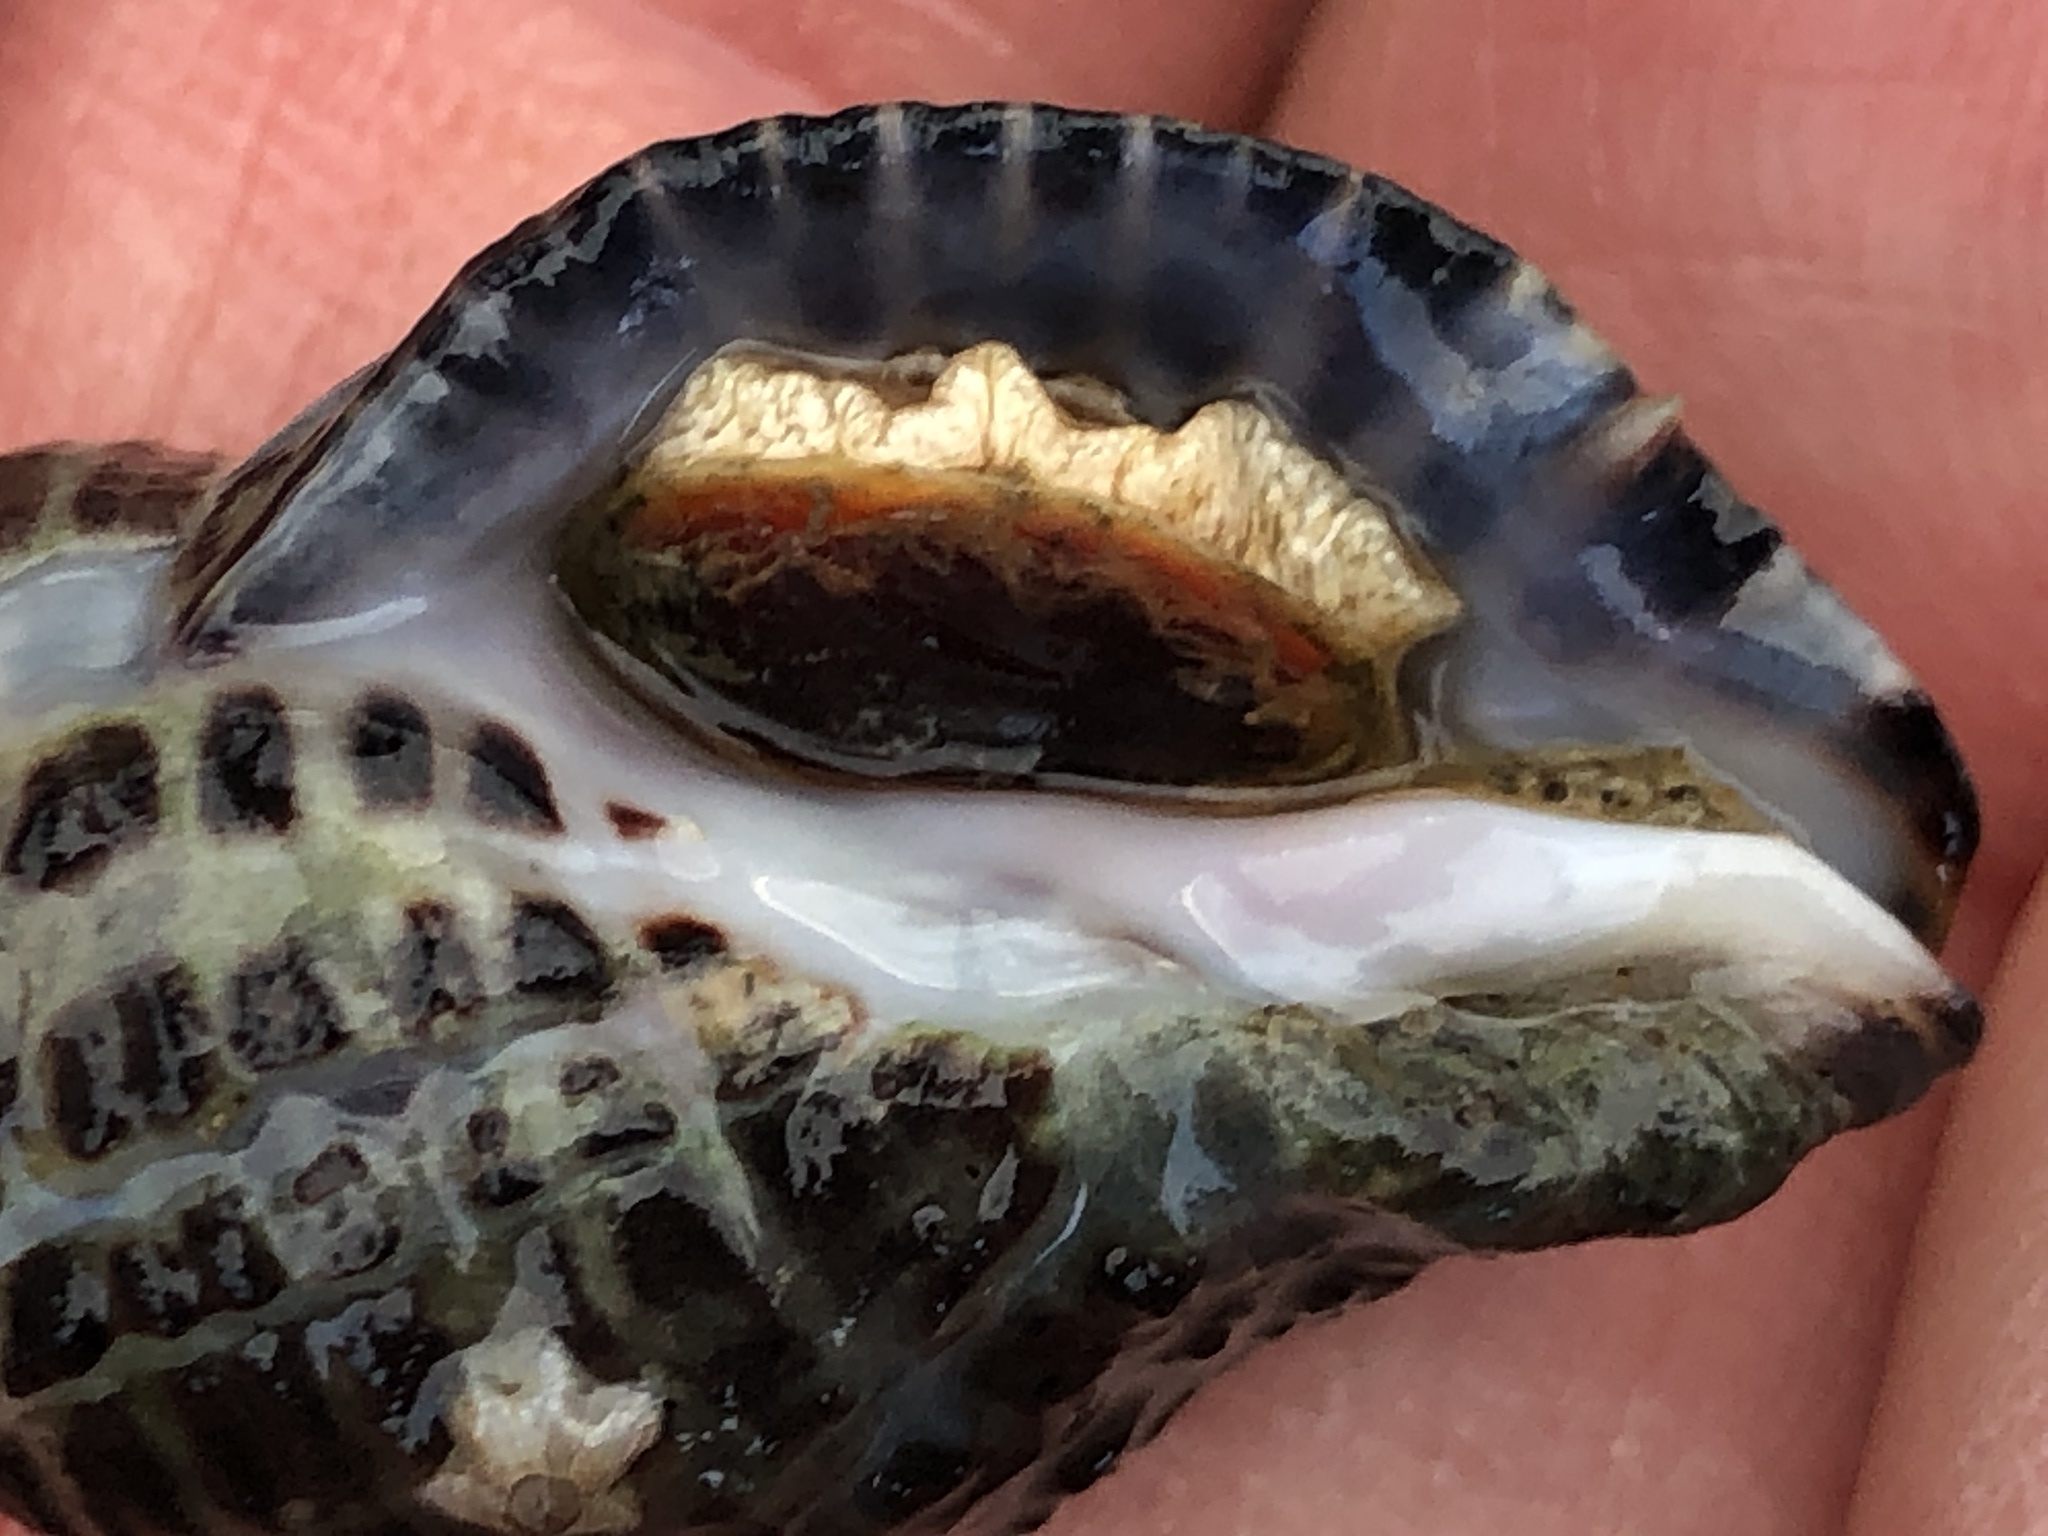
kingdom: Animalia
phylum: Mollusca
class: Gastropoda
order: Neogastropoda
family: Muricidae
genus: Acanthinucella
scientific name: Acanthinucella punctulata
